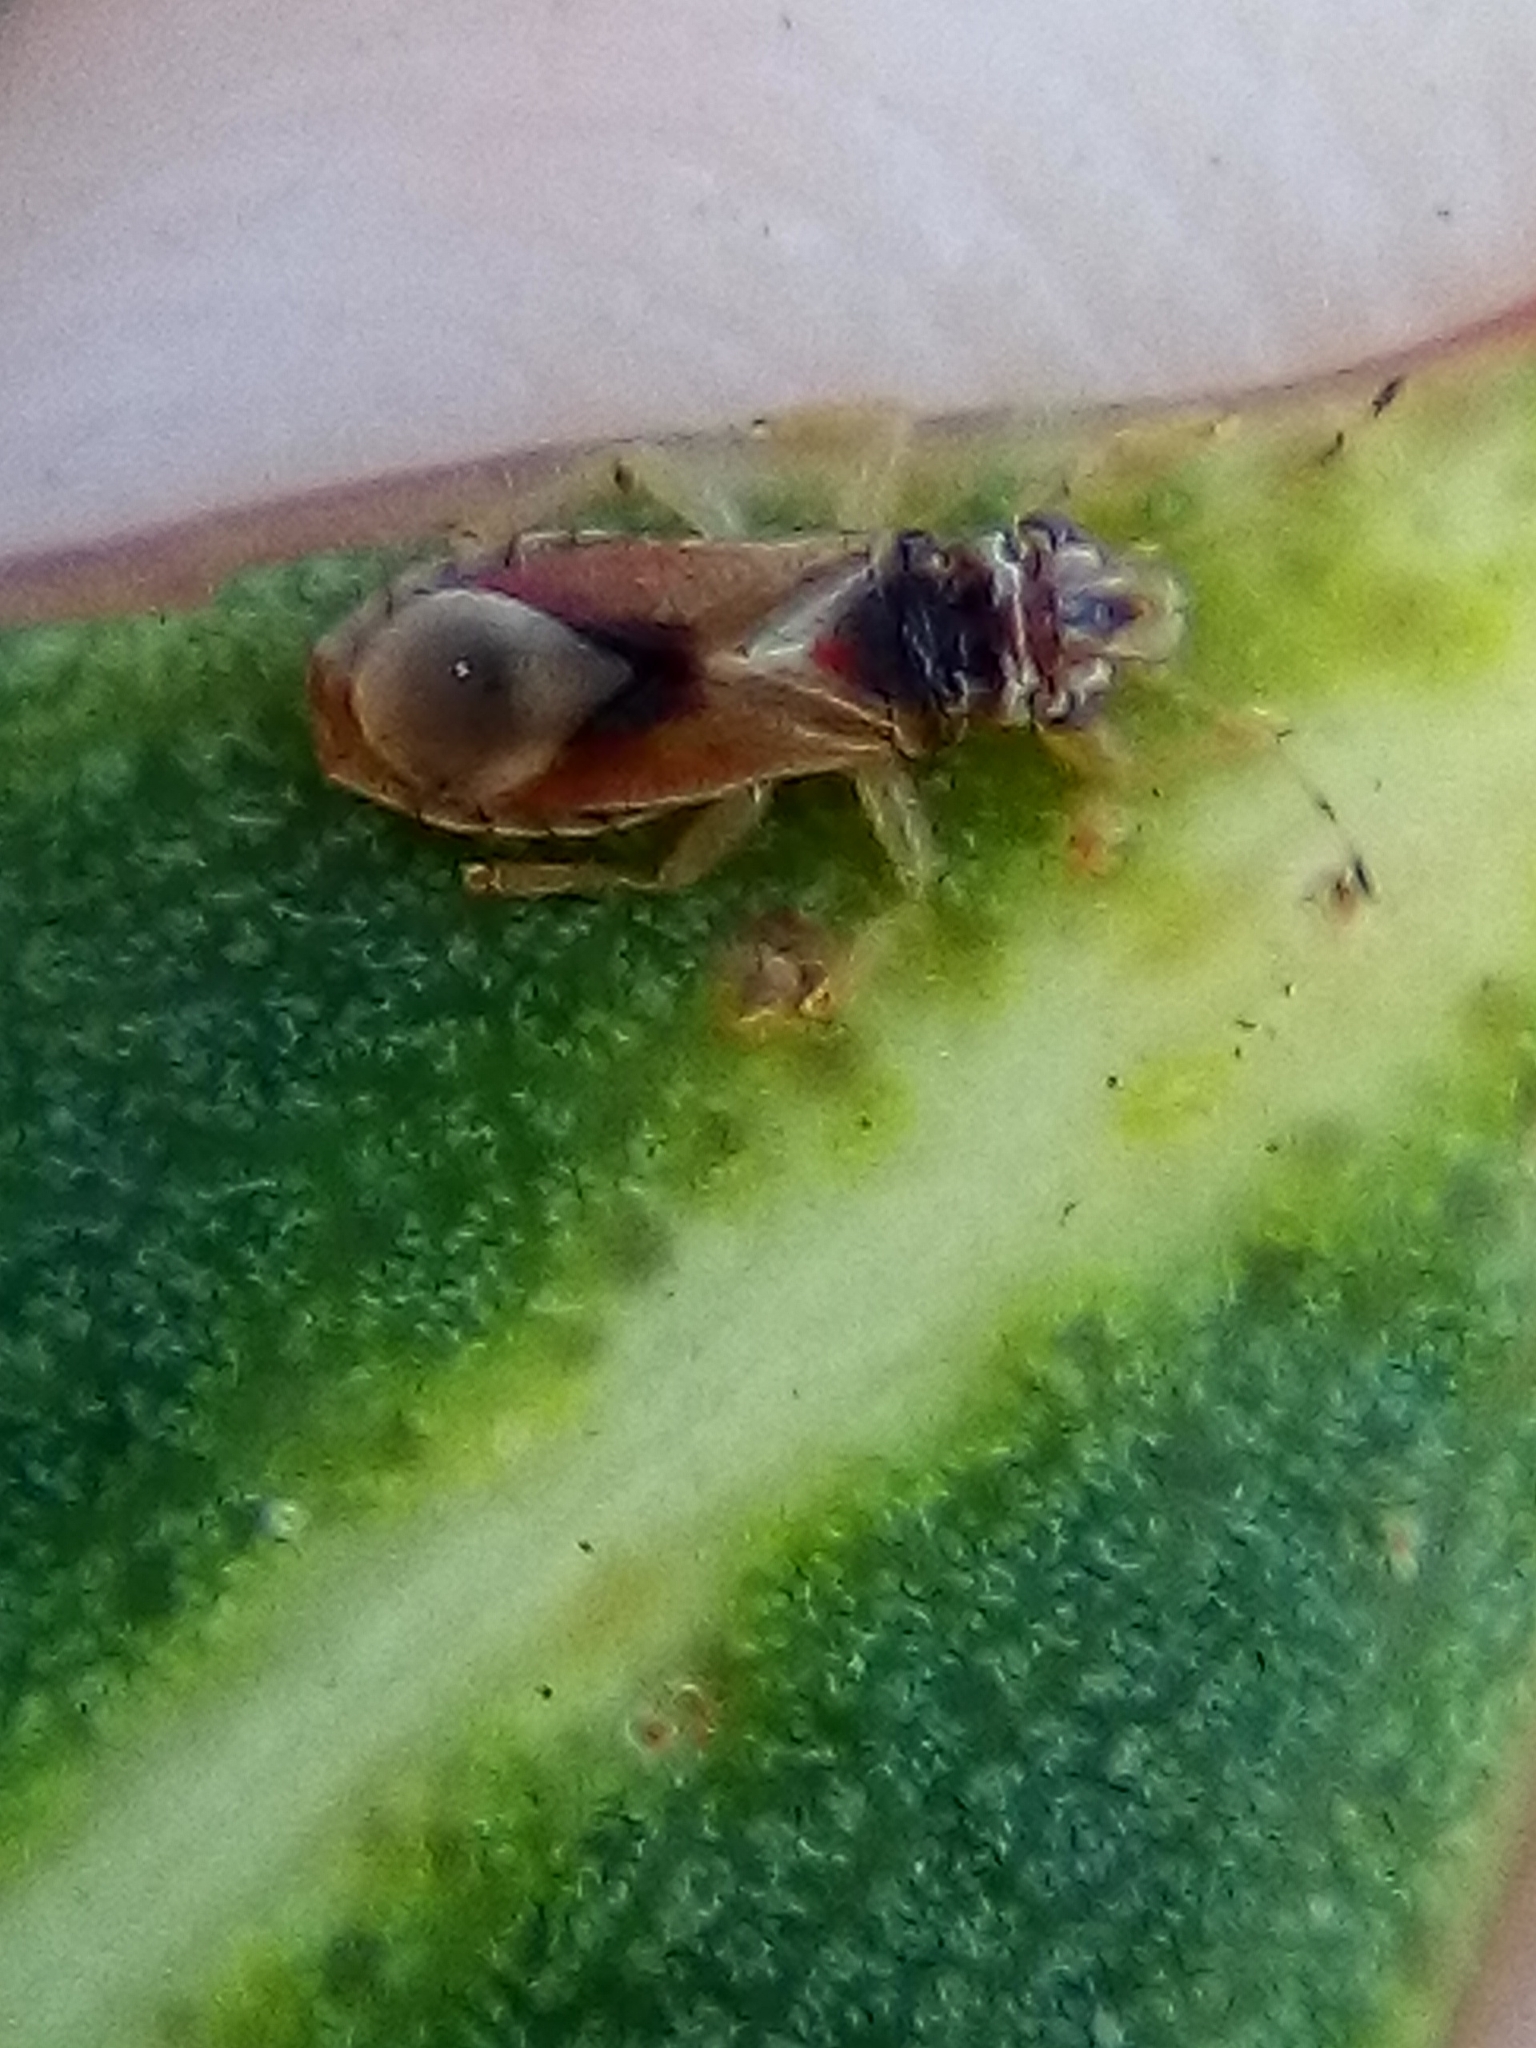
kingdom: Animalia
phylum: Arthropoda
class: Insecta
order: Hemiptera
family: Thaumastocoridae
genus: Thaumastocoris
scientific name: Thaumastocoris peregrinus
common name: Bronze bug
